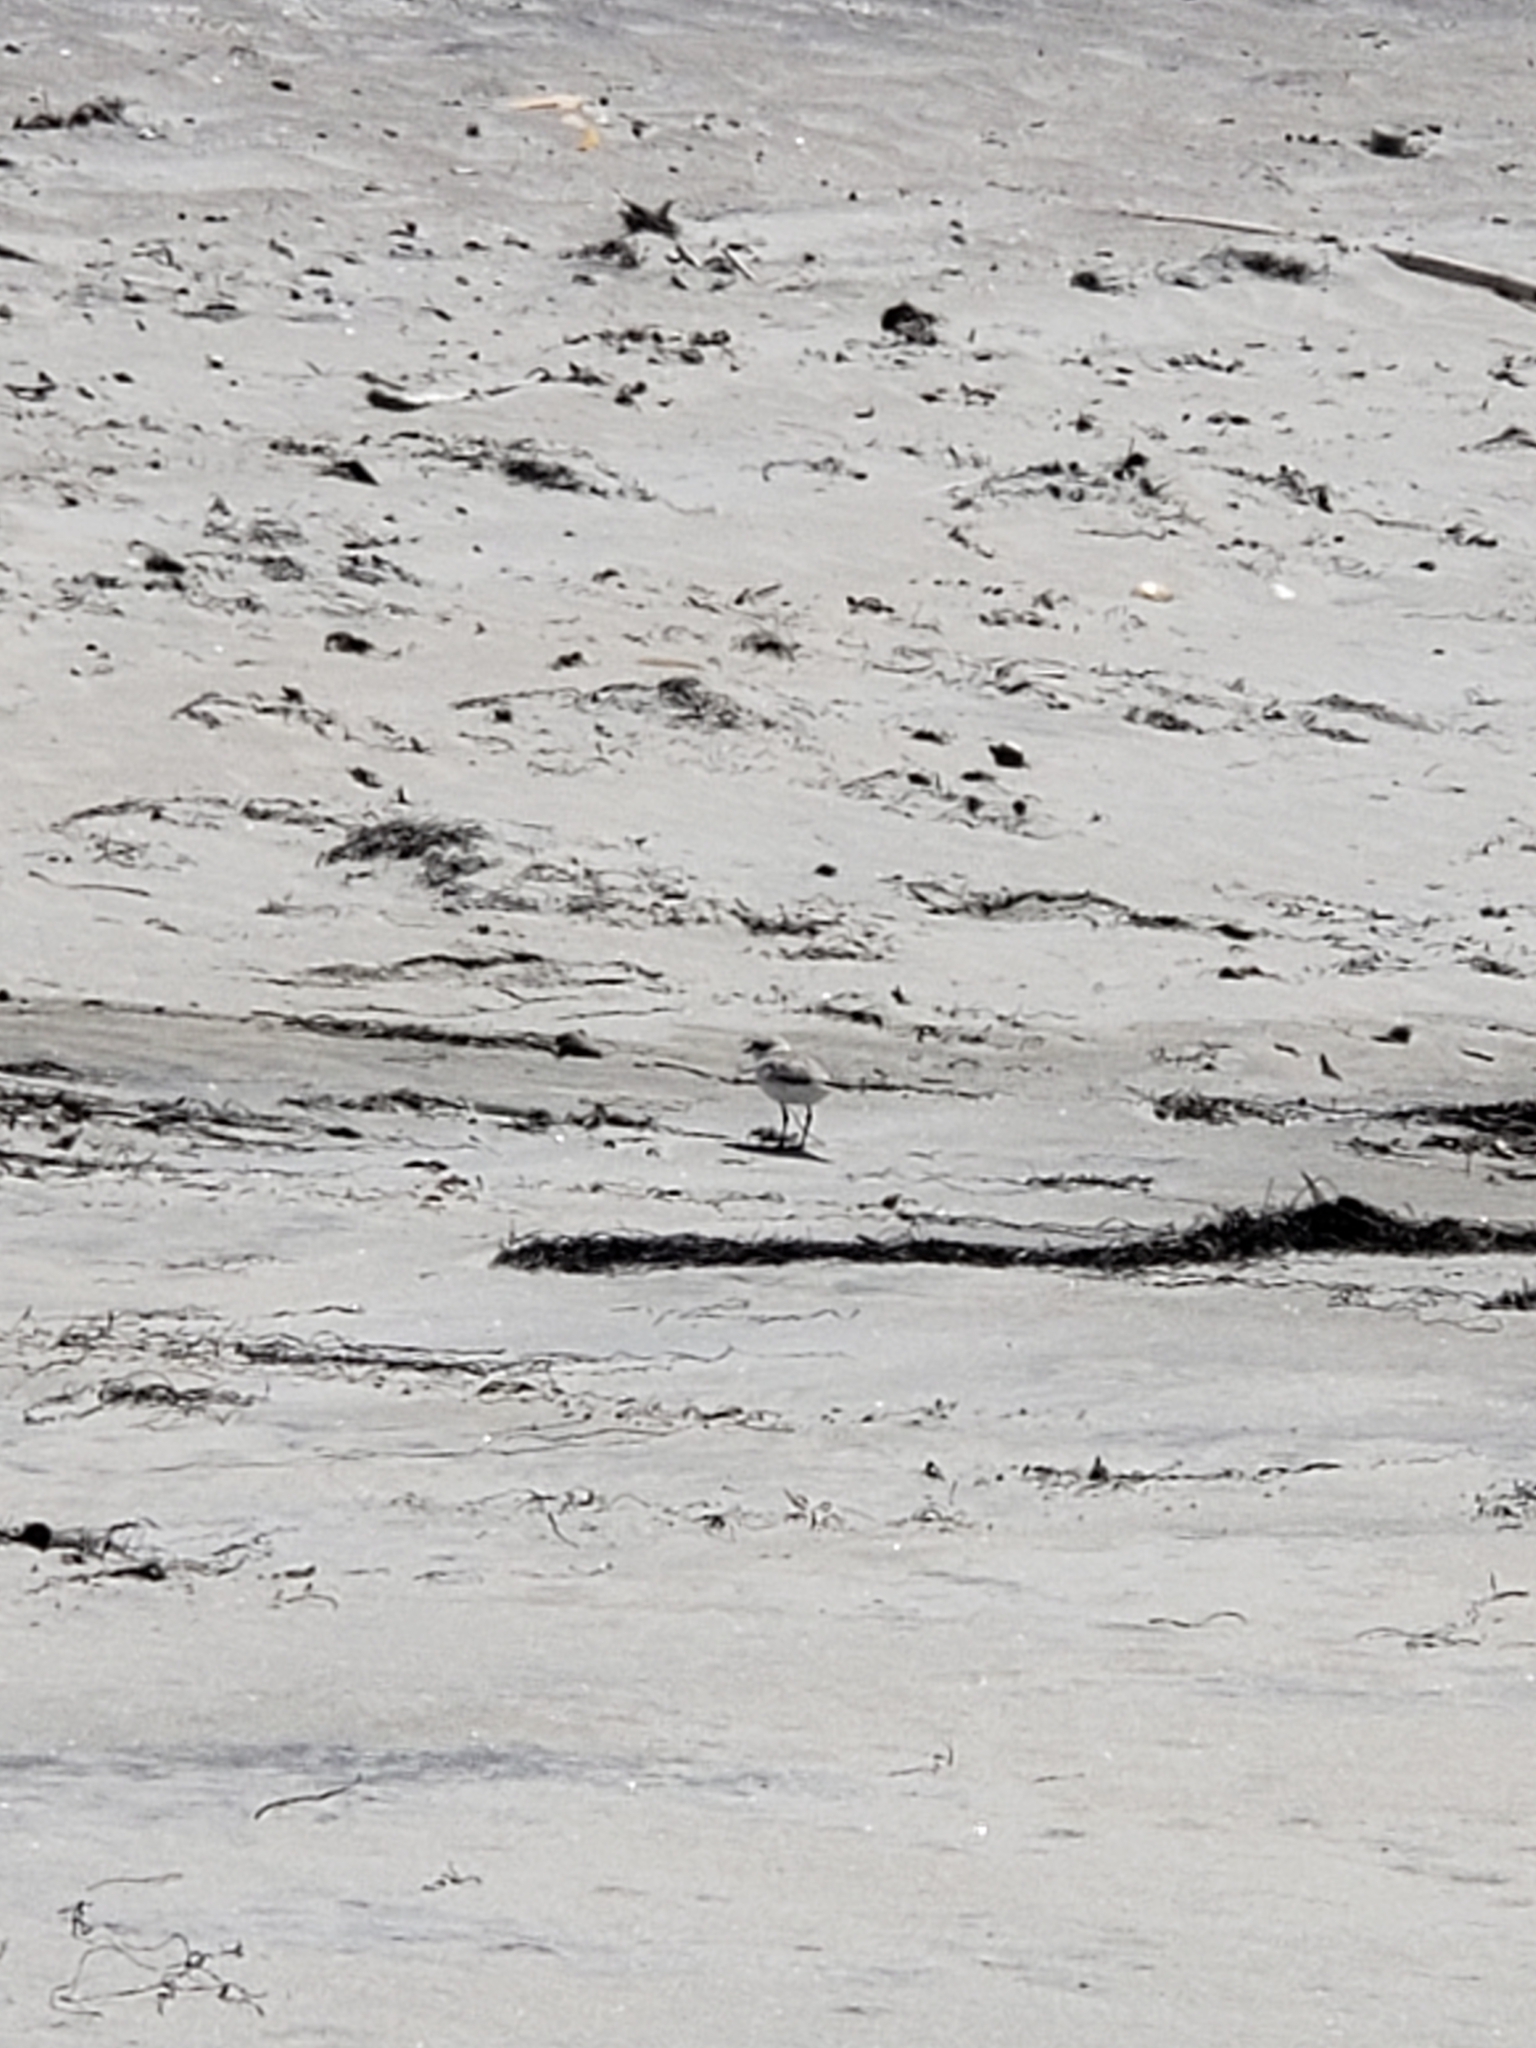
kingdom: Animalia
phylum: Chordata
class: Aves
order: Charadriiformes
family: Charadriidae
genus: Anarhynchus
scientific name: Anarhynchus
